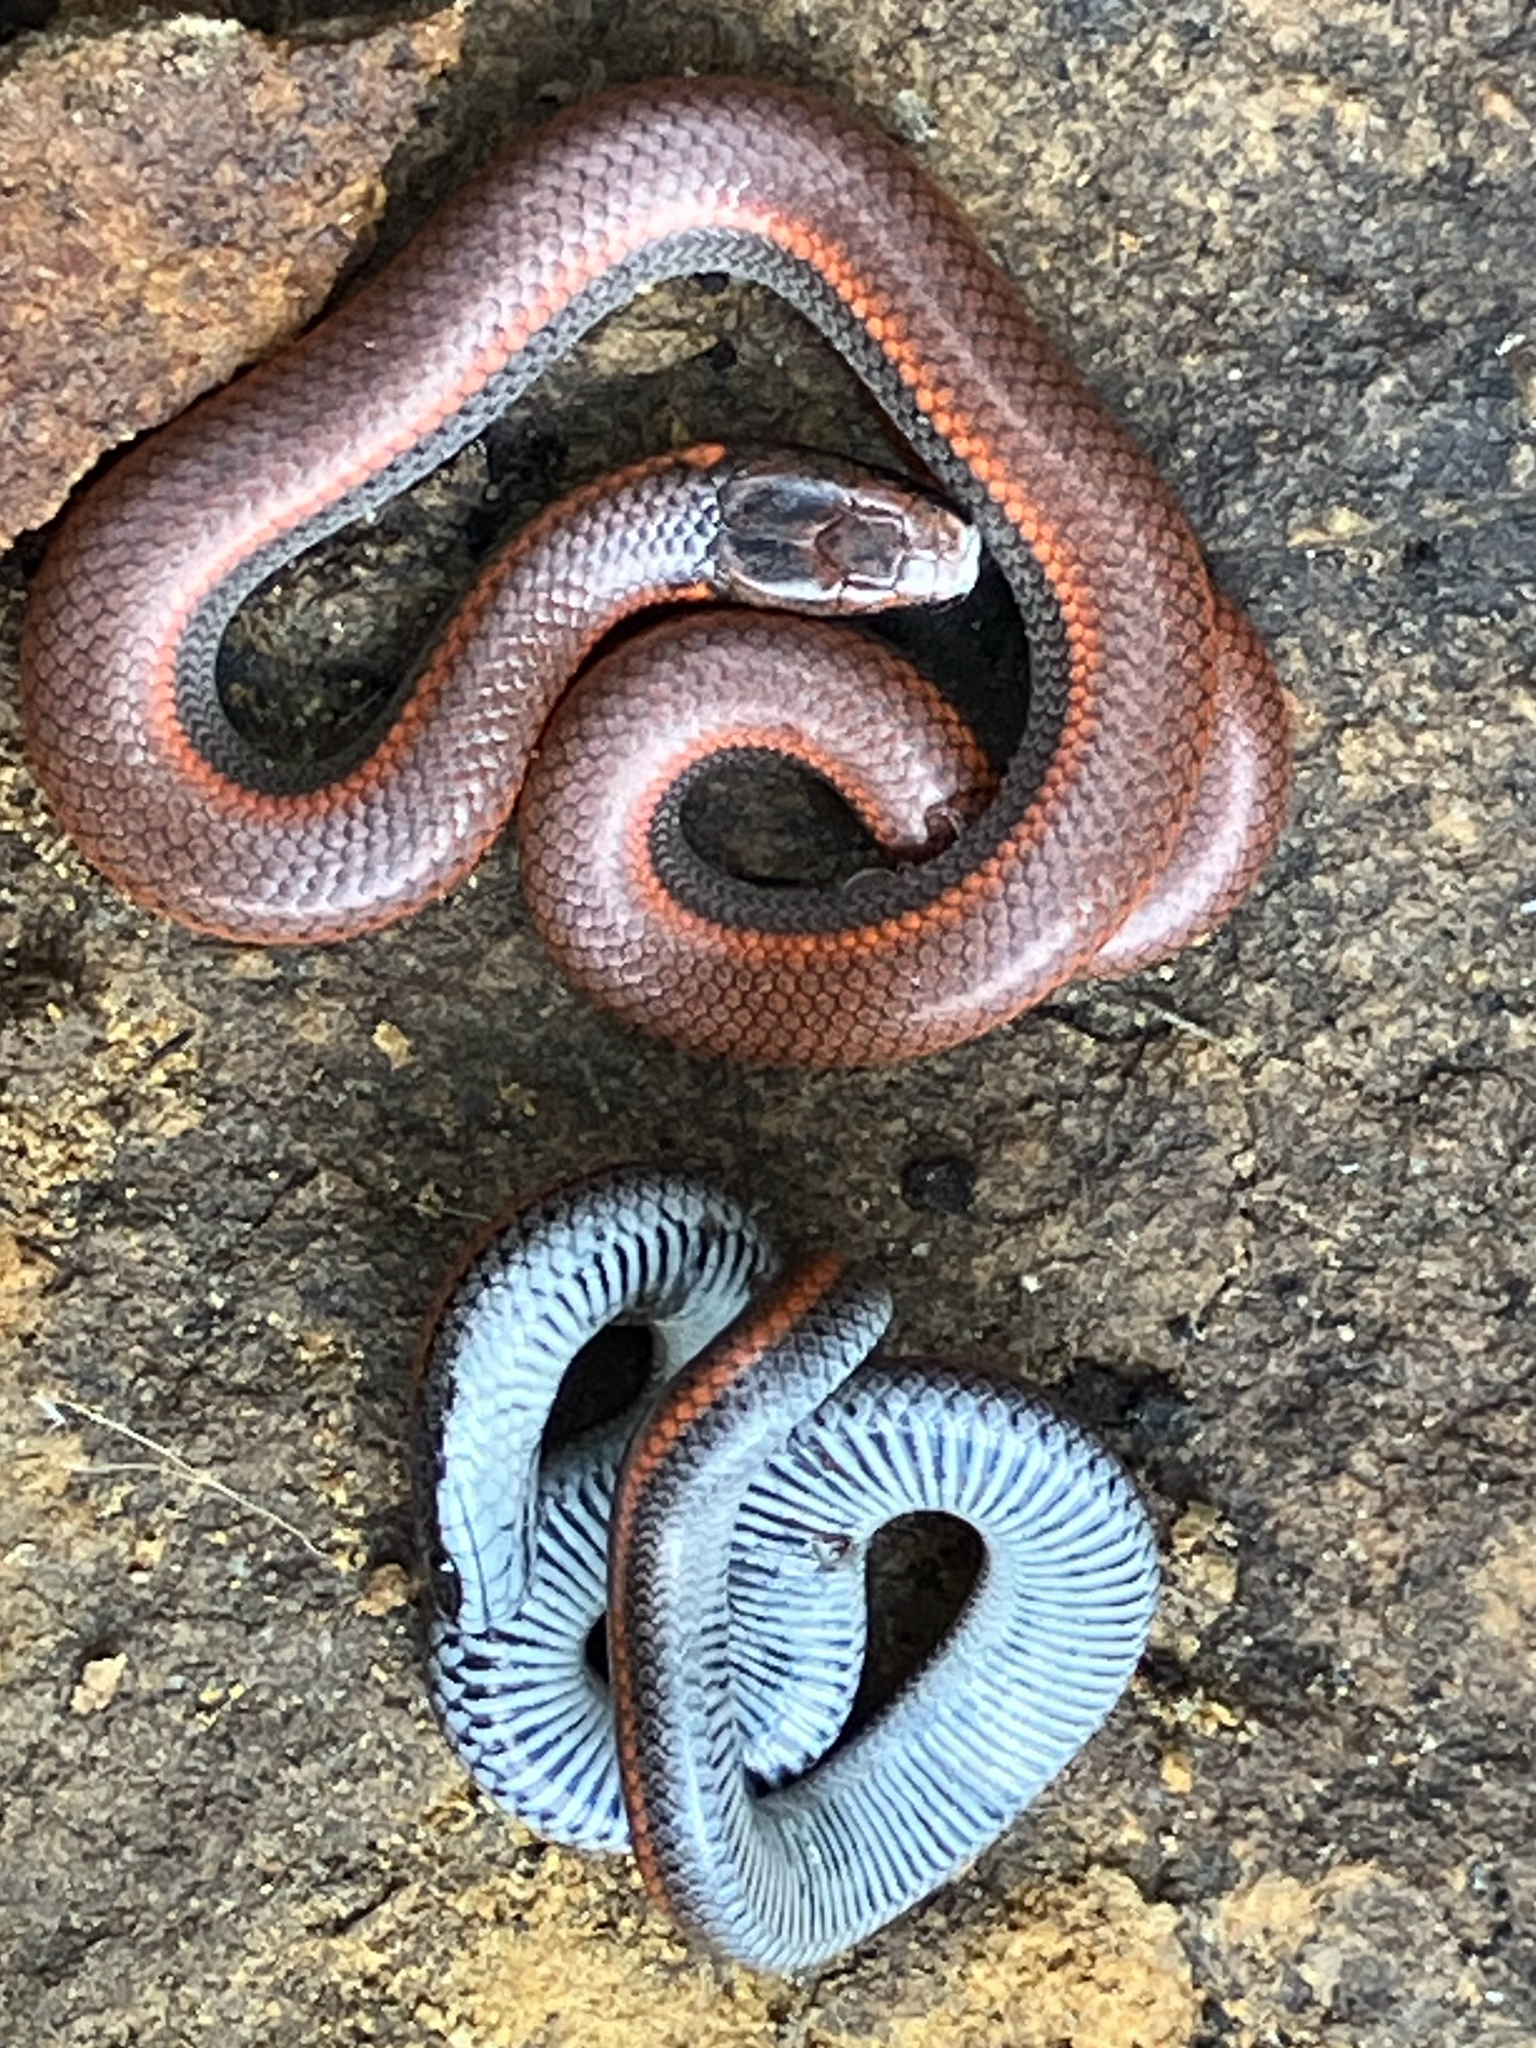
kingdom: Animalia
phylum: Chordata
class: Squamata
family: Colubridae
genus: Contia
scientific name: Contia tenuis
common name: Sharptail snake
